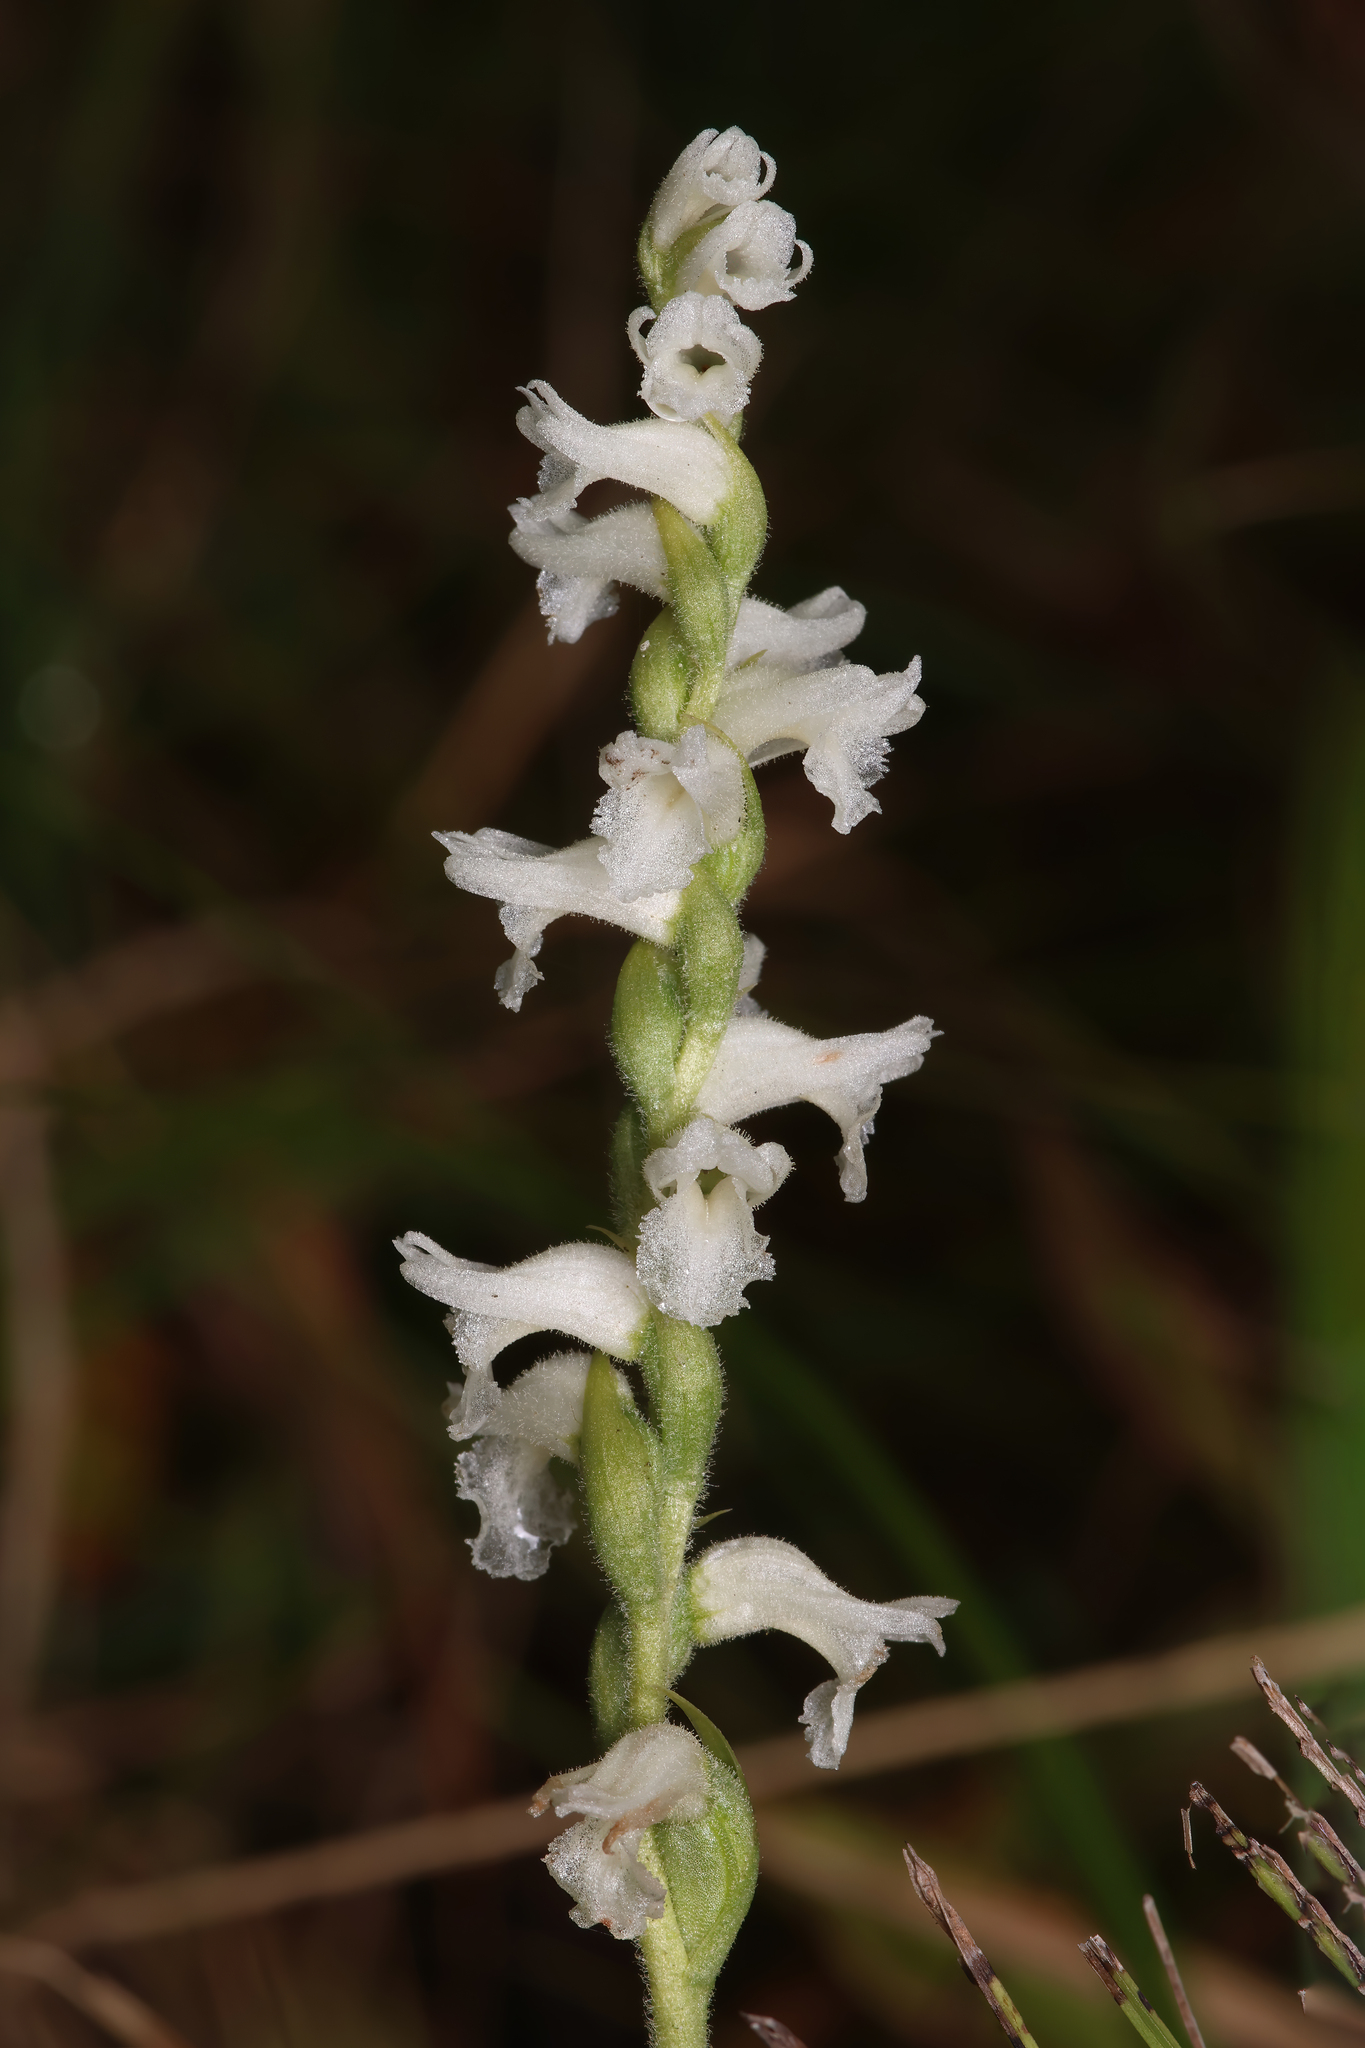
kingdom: Plantae
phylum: Tracheophyta
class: Liliopsida
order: Asparagales
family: Orchidaceae
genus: Spiranthes
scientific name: Spiranthes incurva
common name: Sphinx ladies'-tresses
